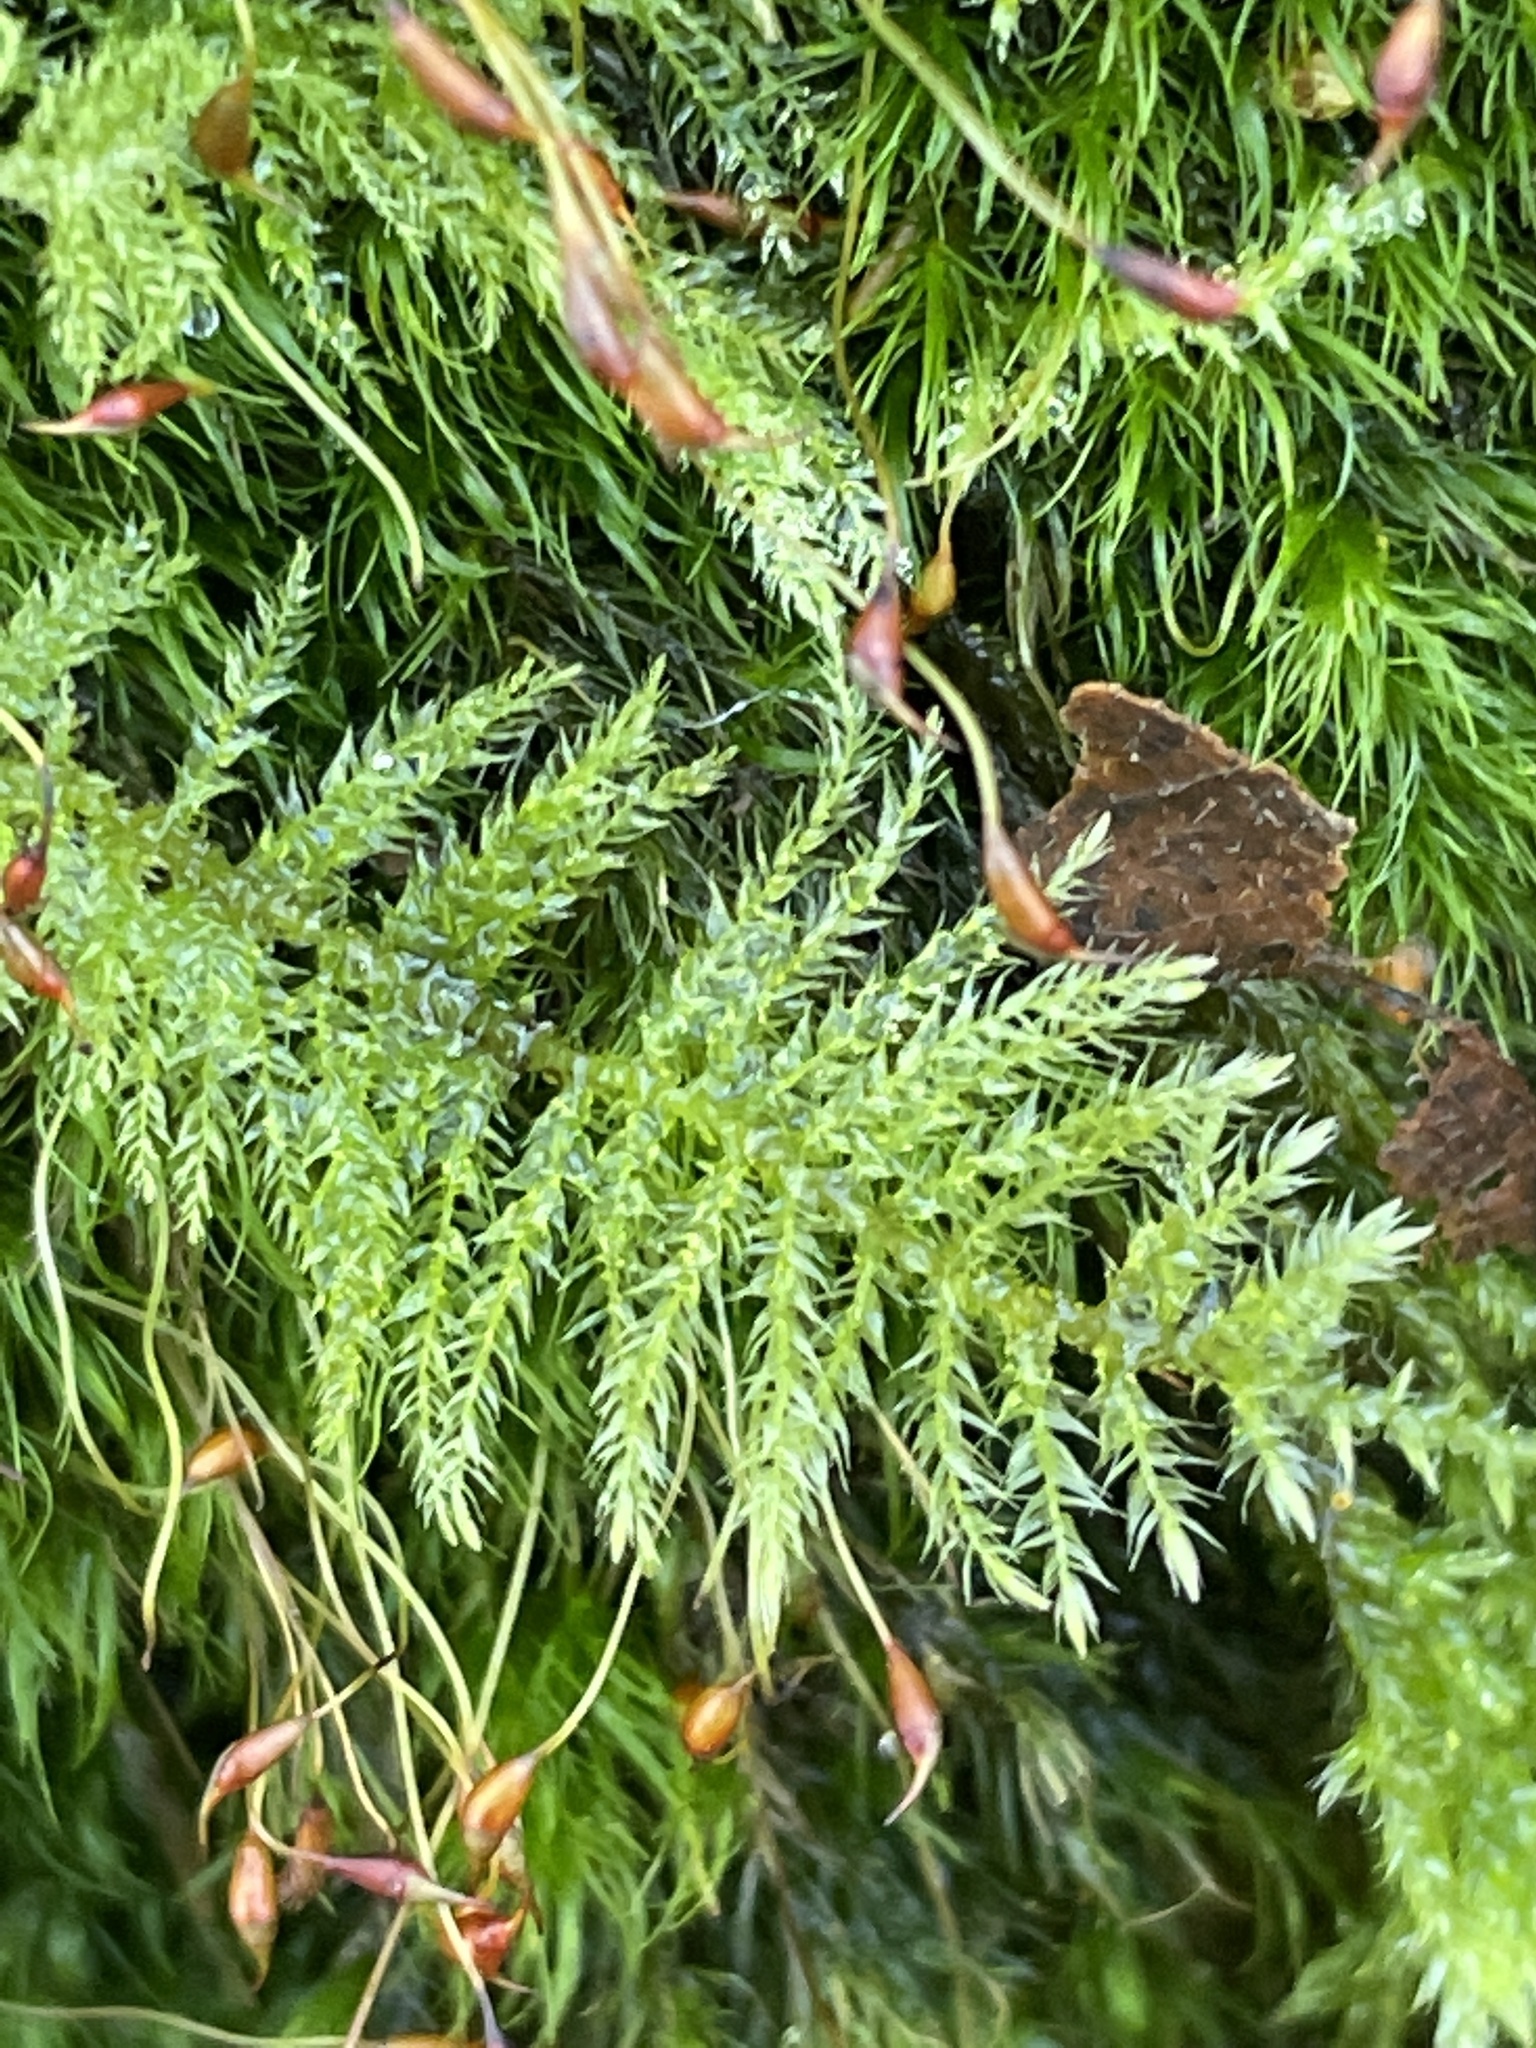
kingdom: Plantae
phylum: Bryophyta
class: Bryopsida
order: Hypnales
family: Brachytheciaceae
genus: Kindbergia
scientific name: Kindbergia praelonga
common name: Slender beaked moss
